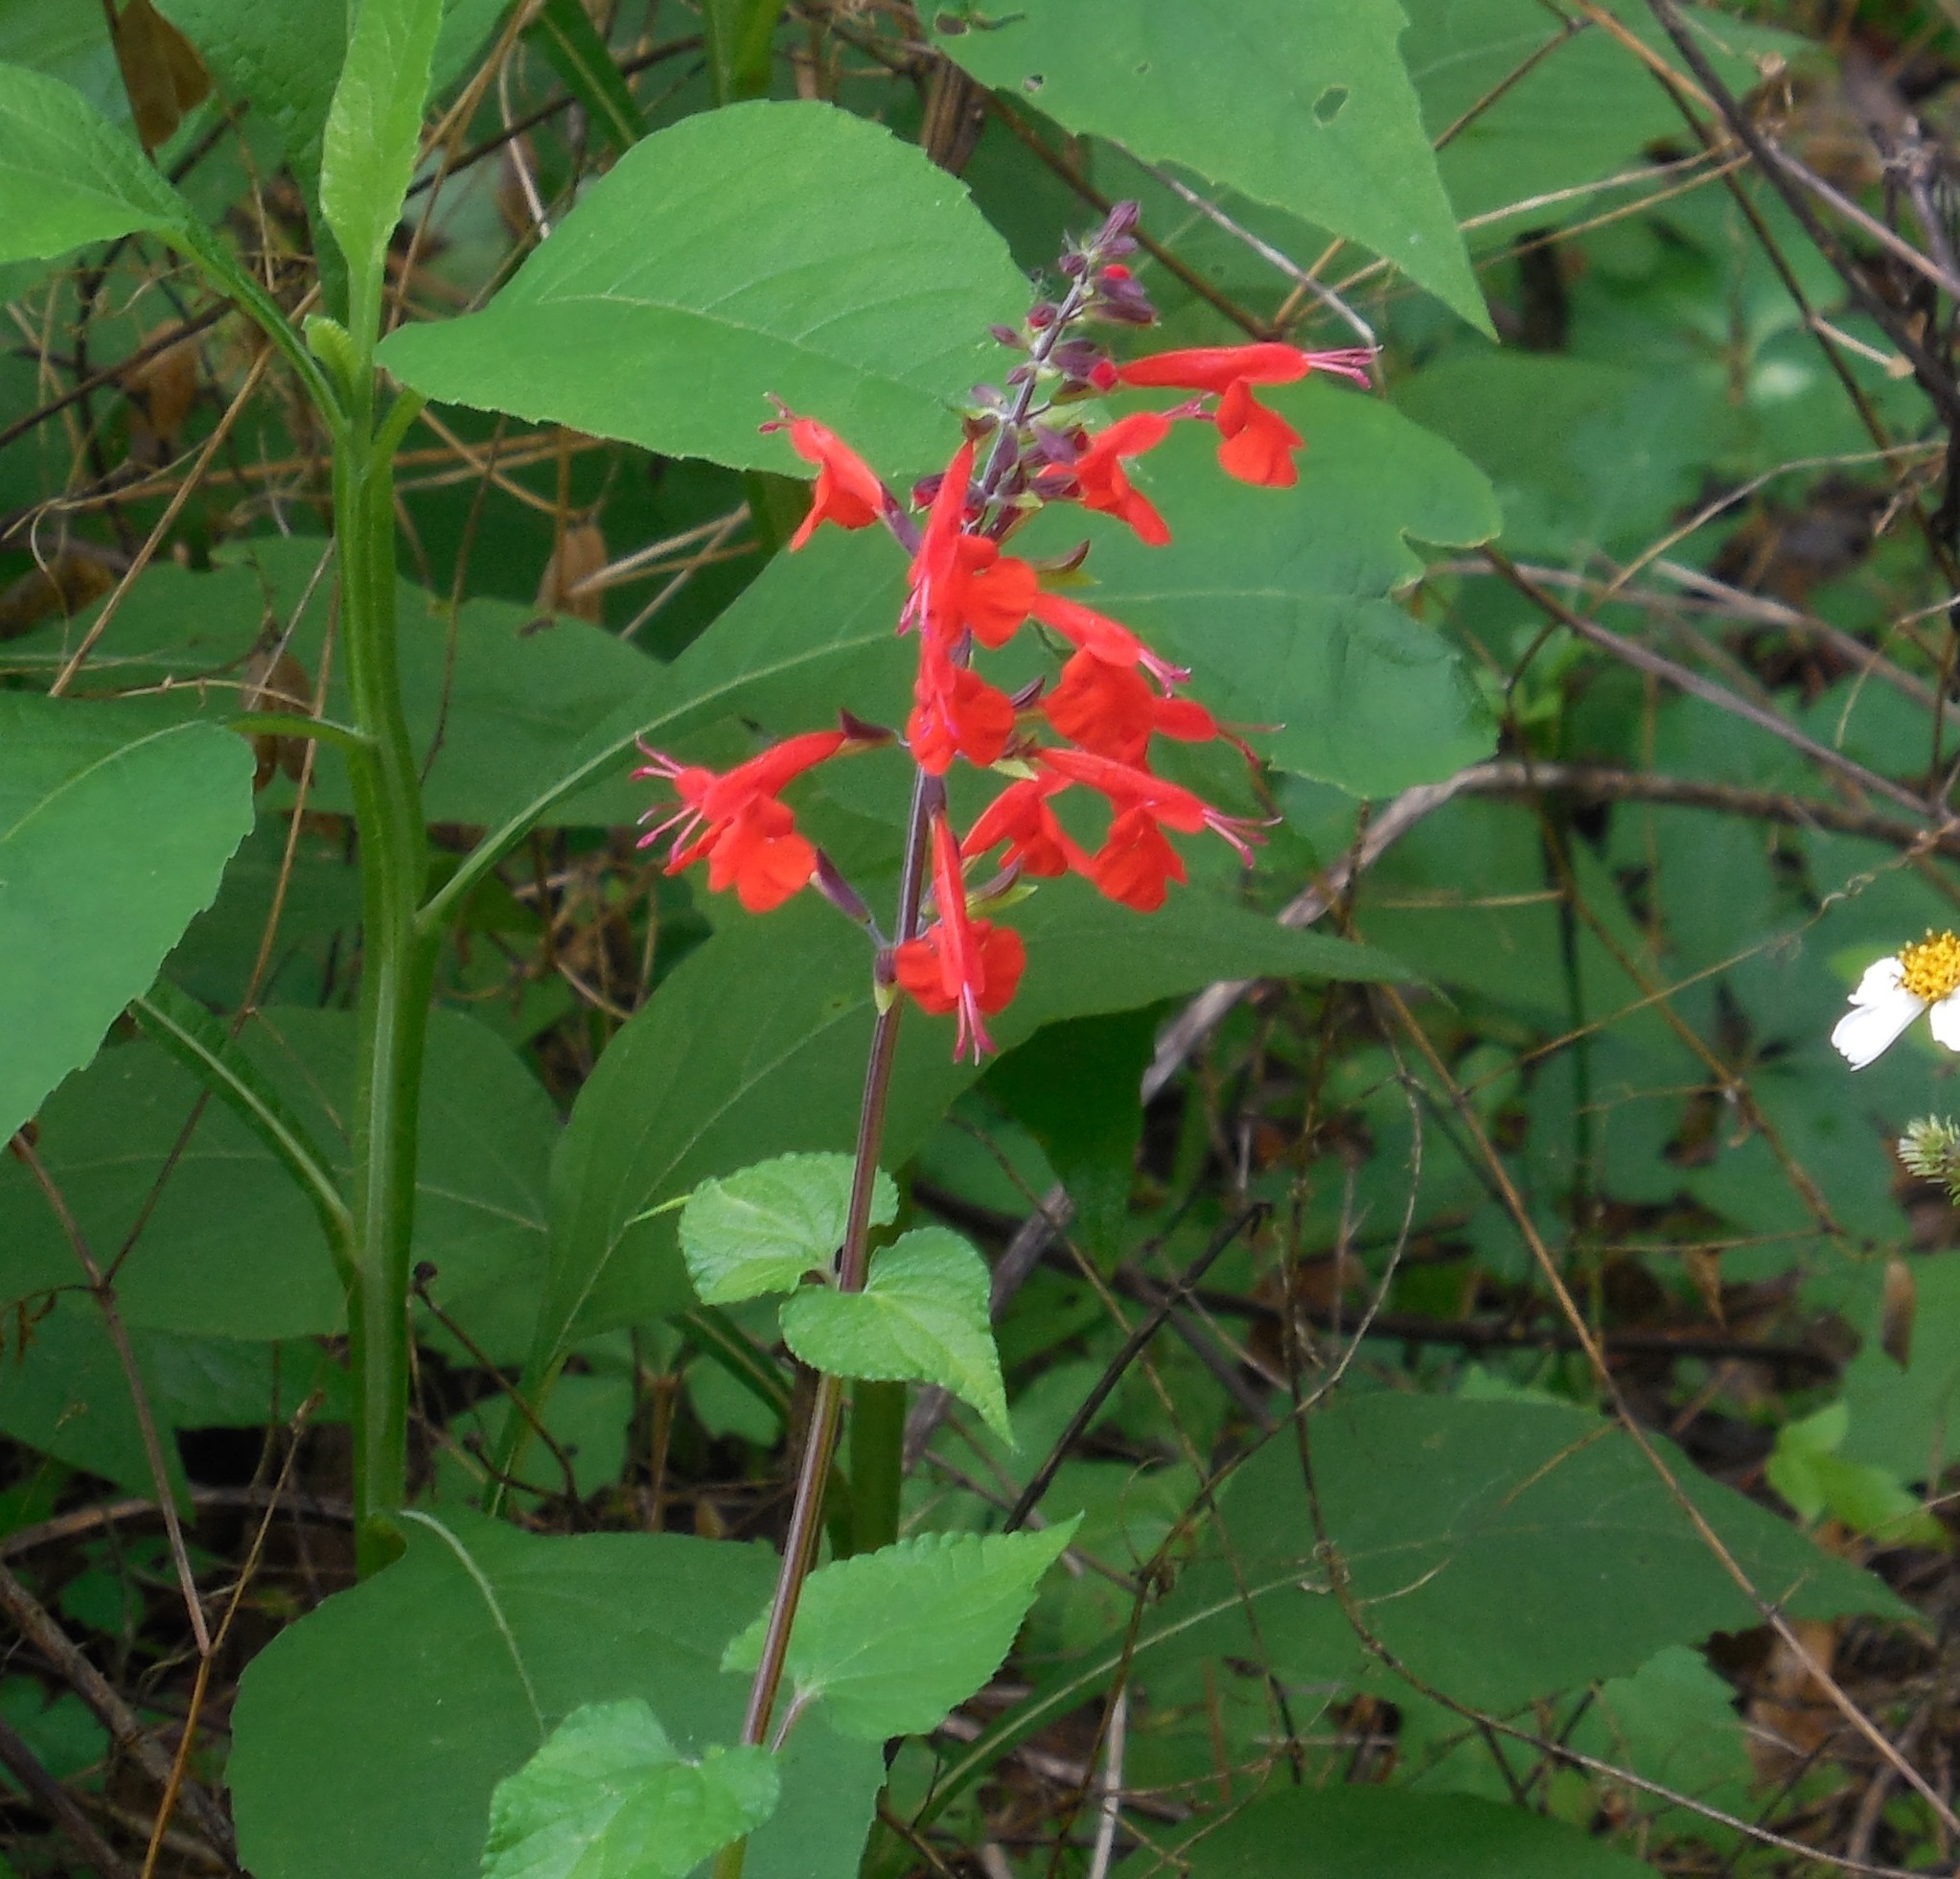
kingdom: Plantae
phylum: Tracheophyta
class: Magnoliopsida
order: Lamiales
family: Lamiaceae
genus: Salvia
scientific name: Salvia coccinea
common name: Blood sage
